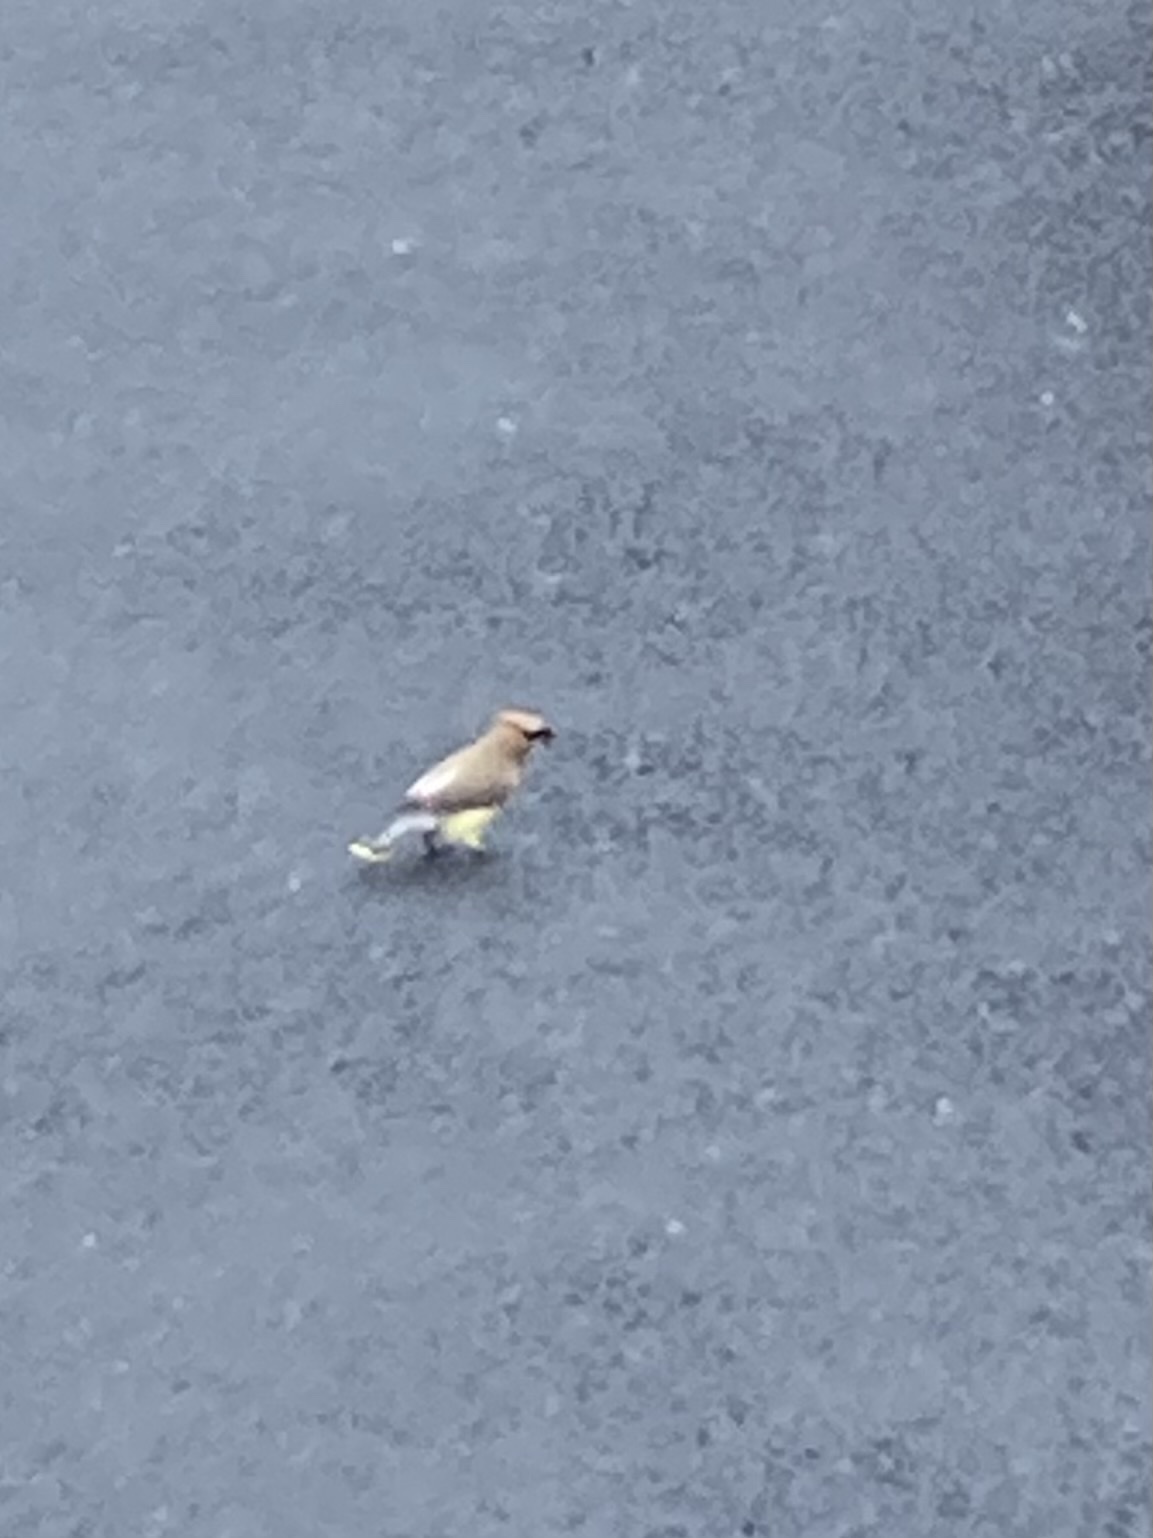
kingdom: Animalia
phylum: Chordata
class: Aves
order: Passeriformes
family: Bombycillidae
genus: Bombycilla
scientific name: Bombycilla cedrorum
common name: Cedar waxwing
